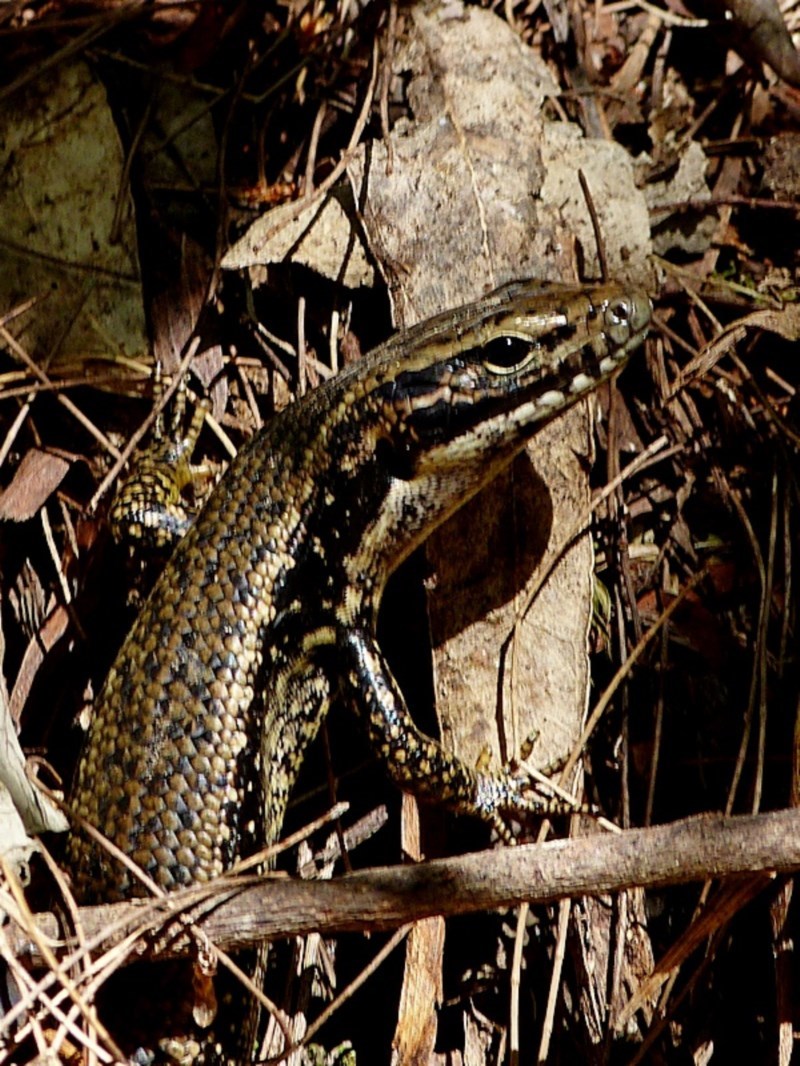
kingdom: Animalia
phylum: Chordata
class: Squamata
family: Scincidae
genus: Eulamprus
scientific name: Eulamprus heatwolei
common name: Warm-temperate water-skink
